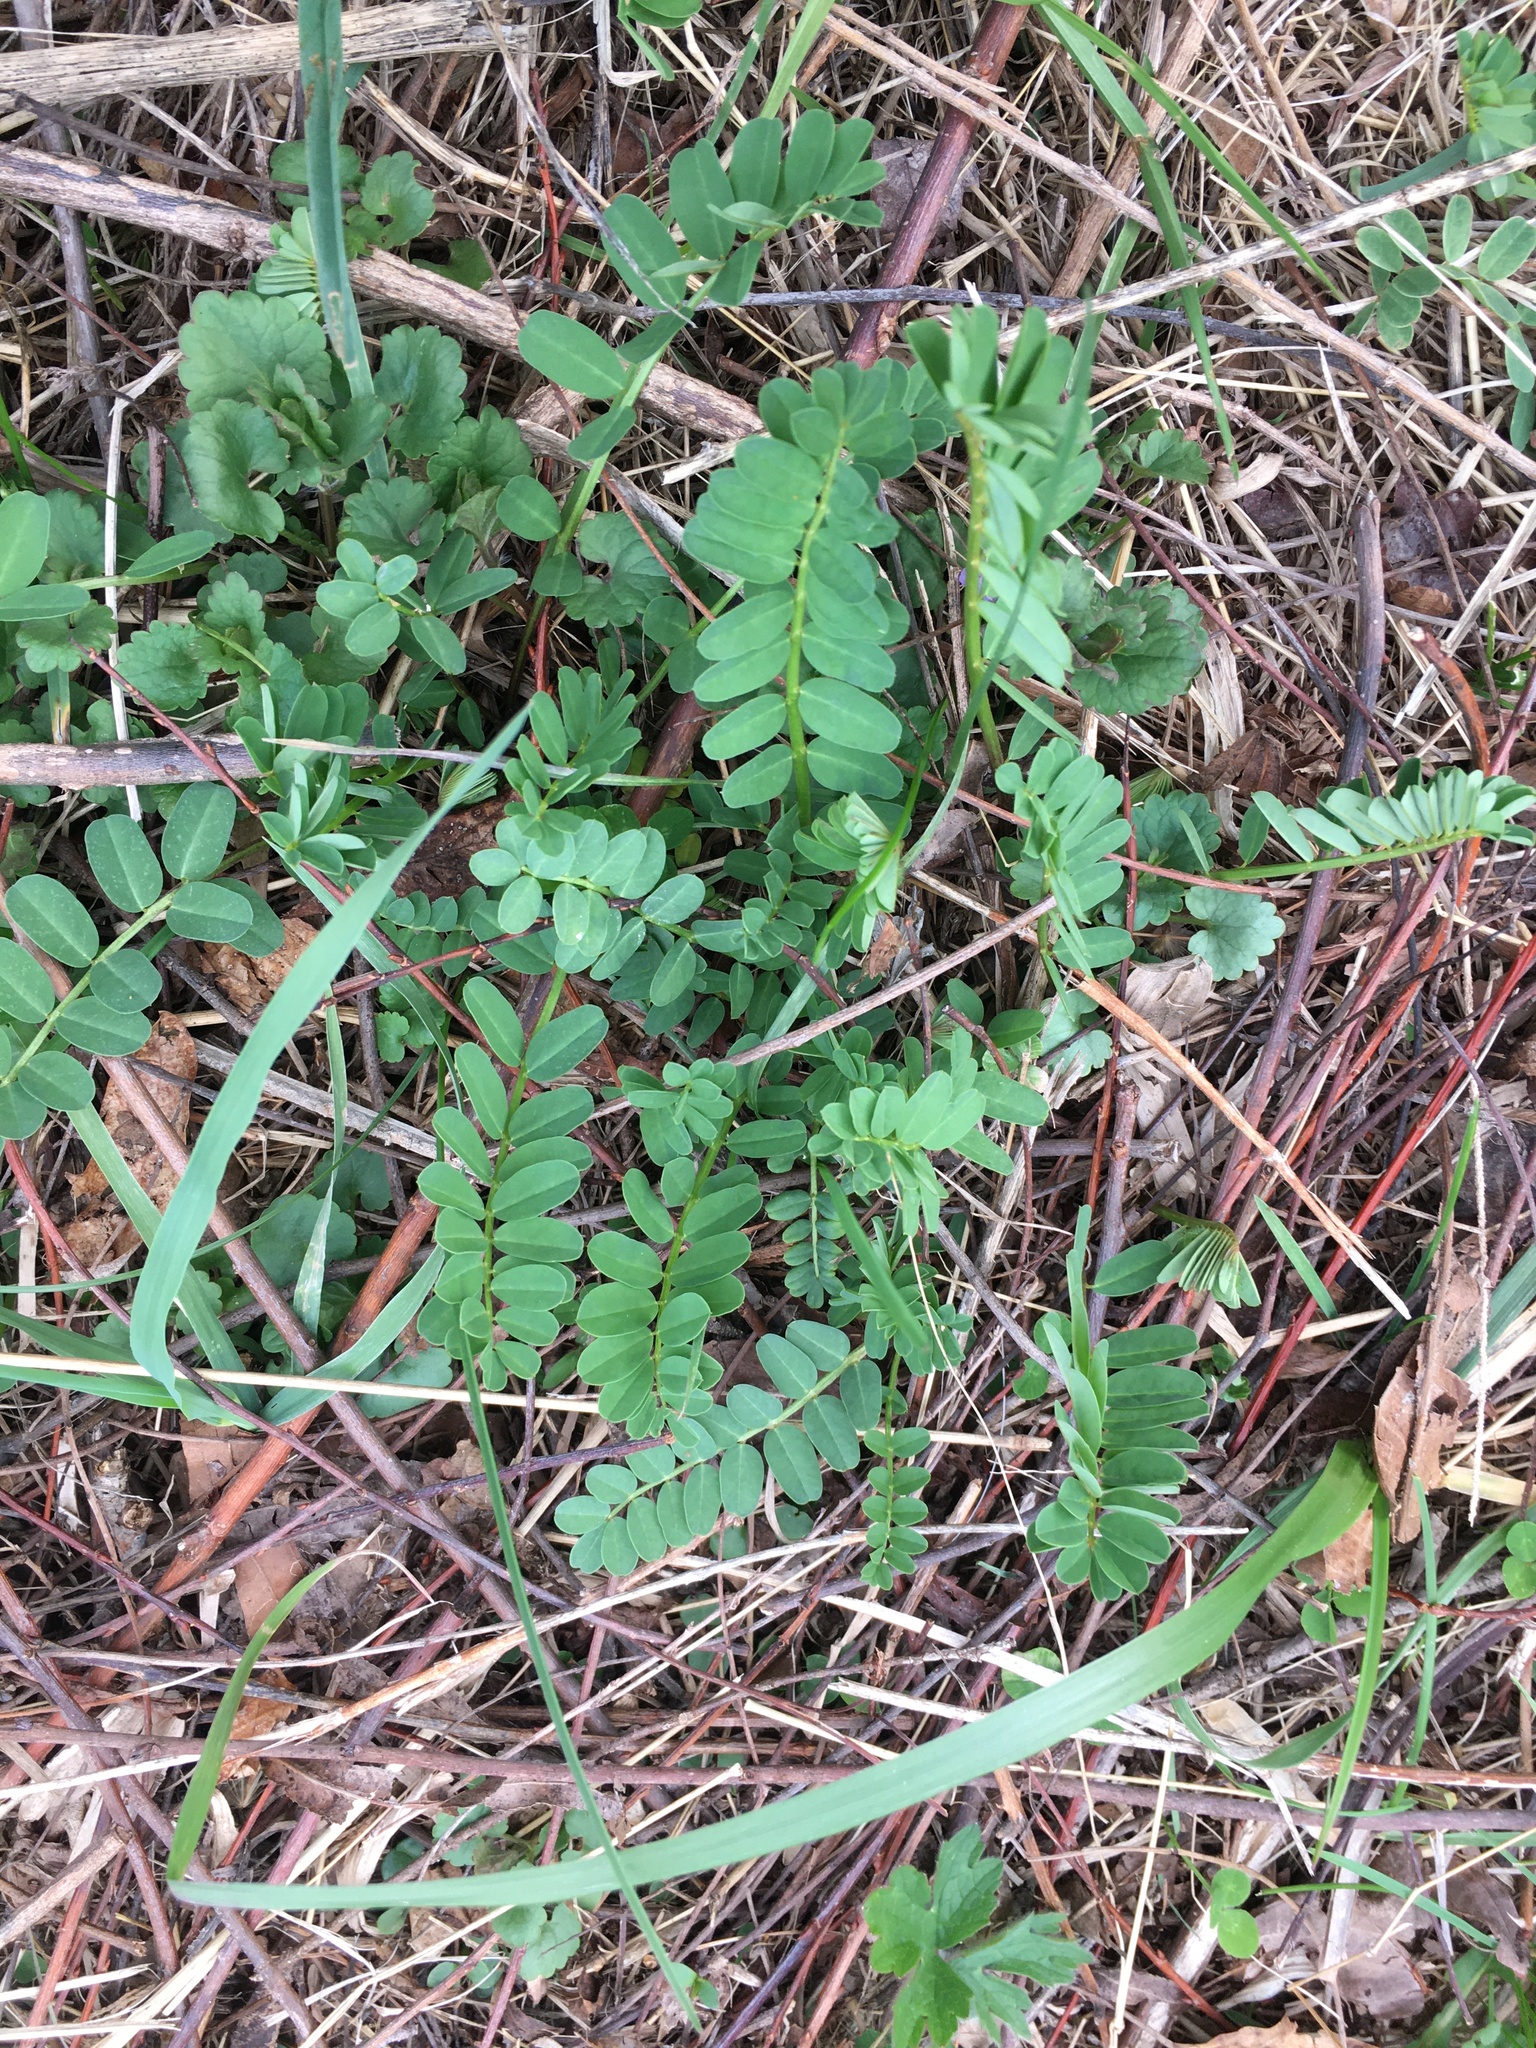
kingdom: Plantae
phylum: Tracheophyta
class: Magnoliopsida
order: Fabales
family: Fabaceae
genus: Coronilla
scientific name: Coronilla varia
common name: Crownvetch
